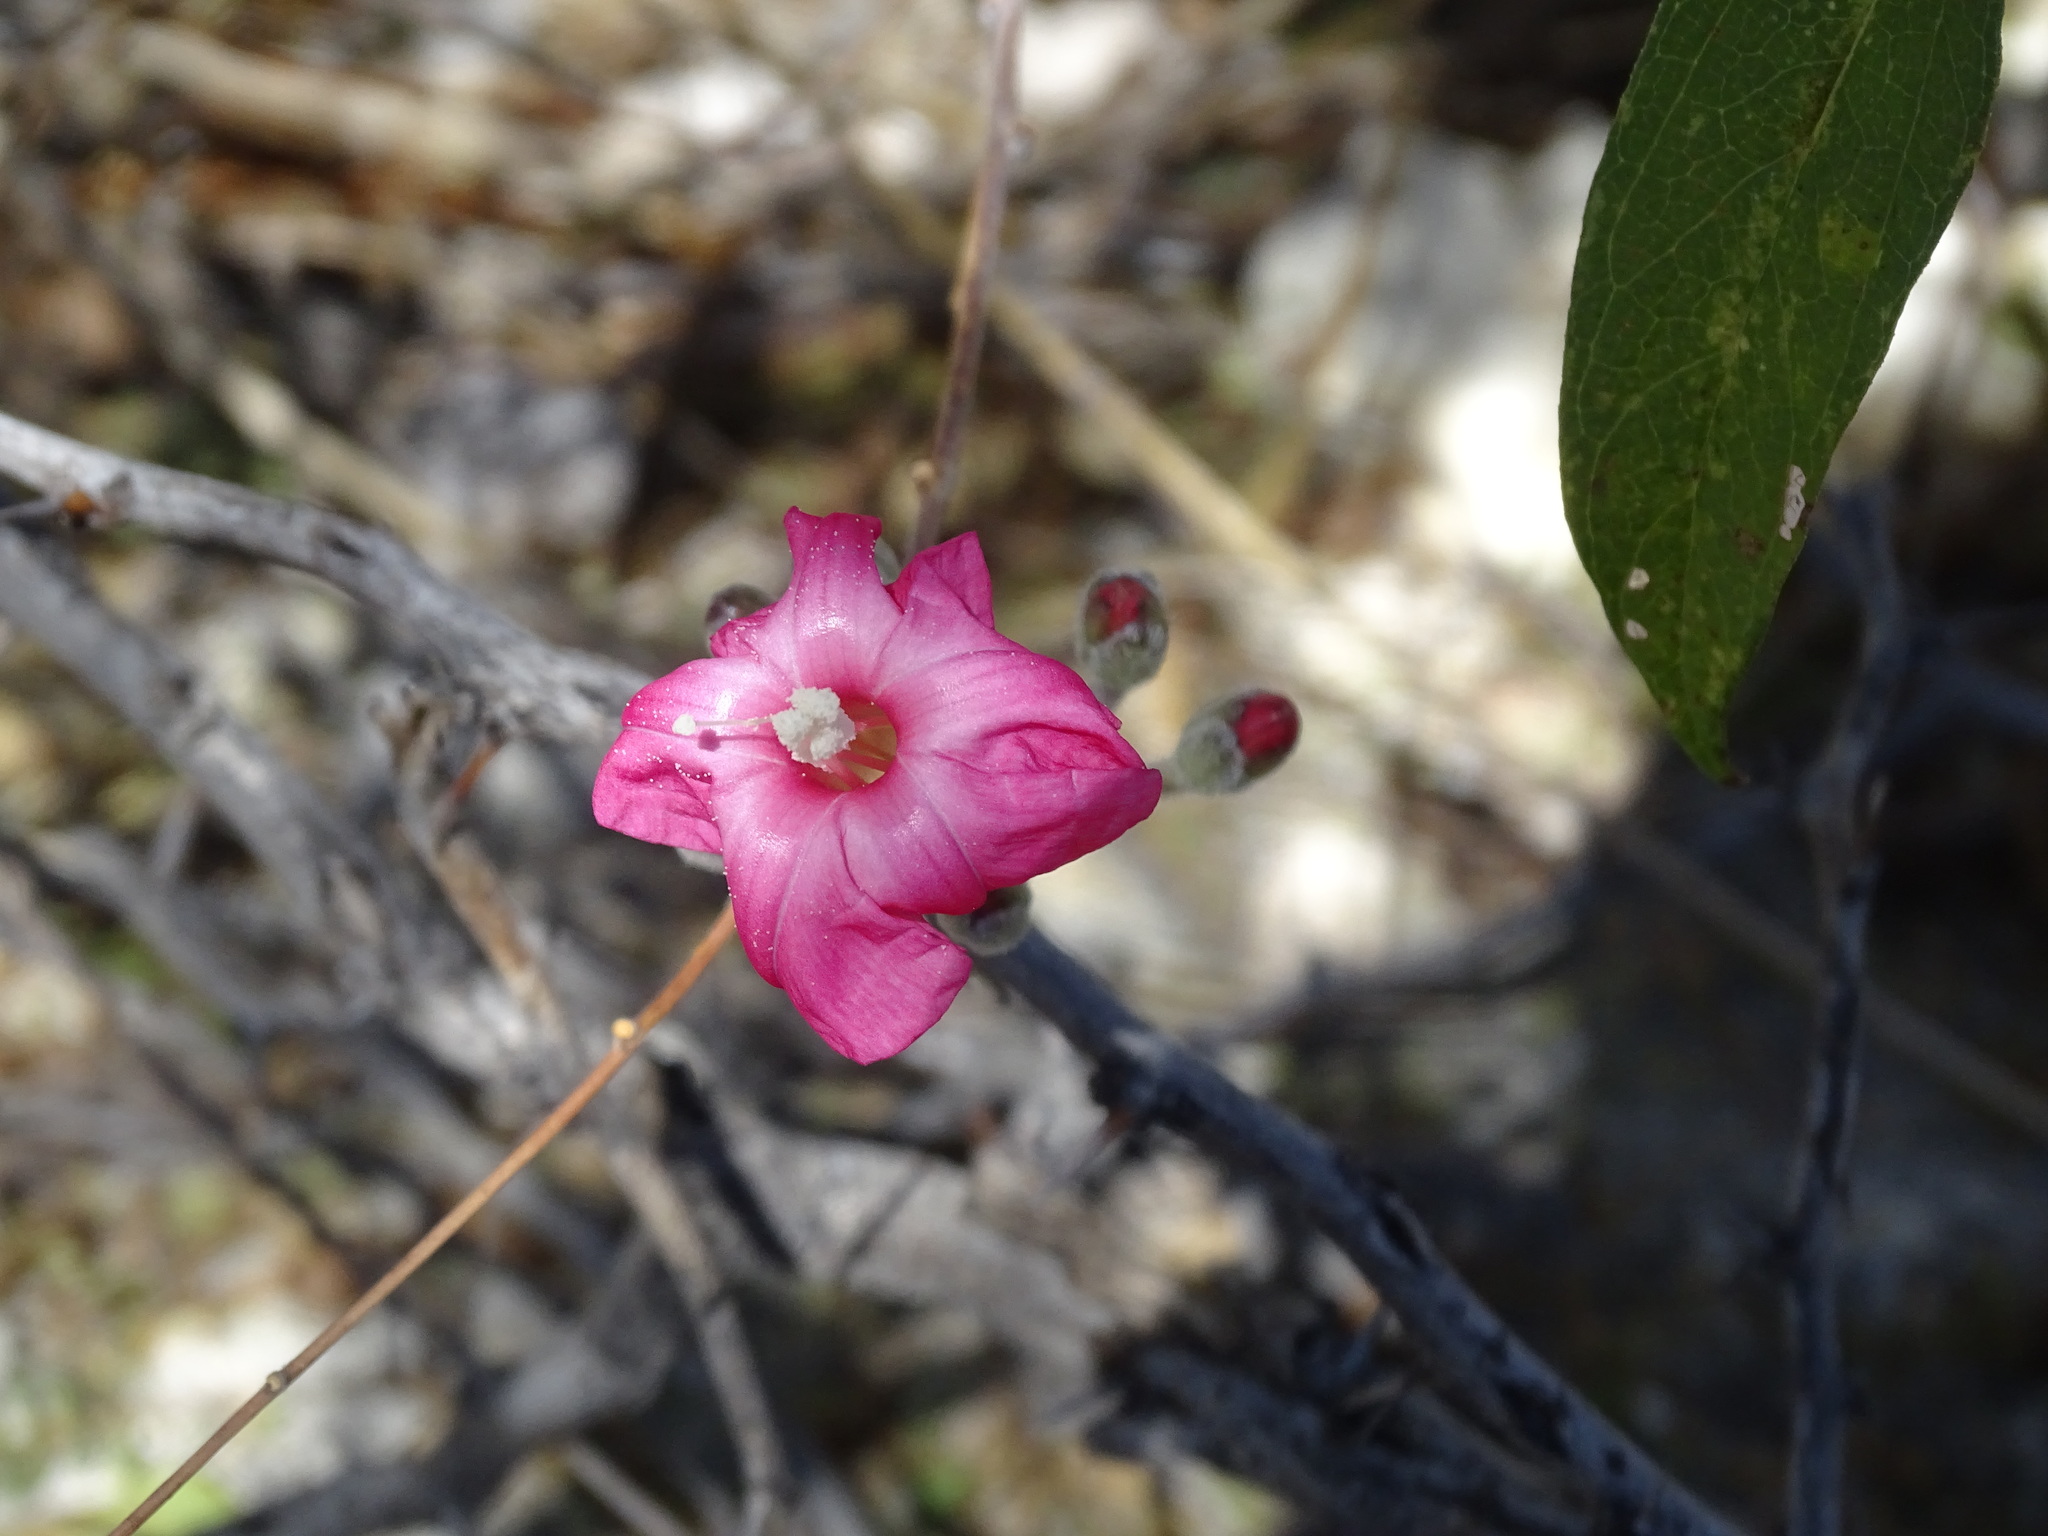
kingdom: Plantae
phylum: Tracheophyta
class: Magnoliopsida
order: Solanales
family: Convolvulaceae
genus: Ipomoea
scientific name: Ipomoea conzattii
